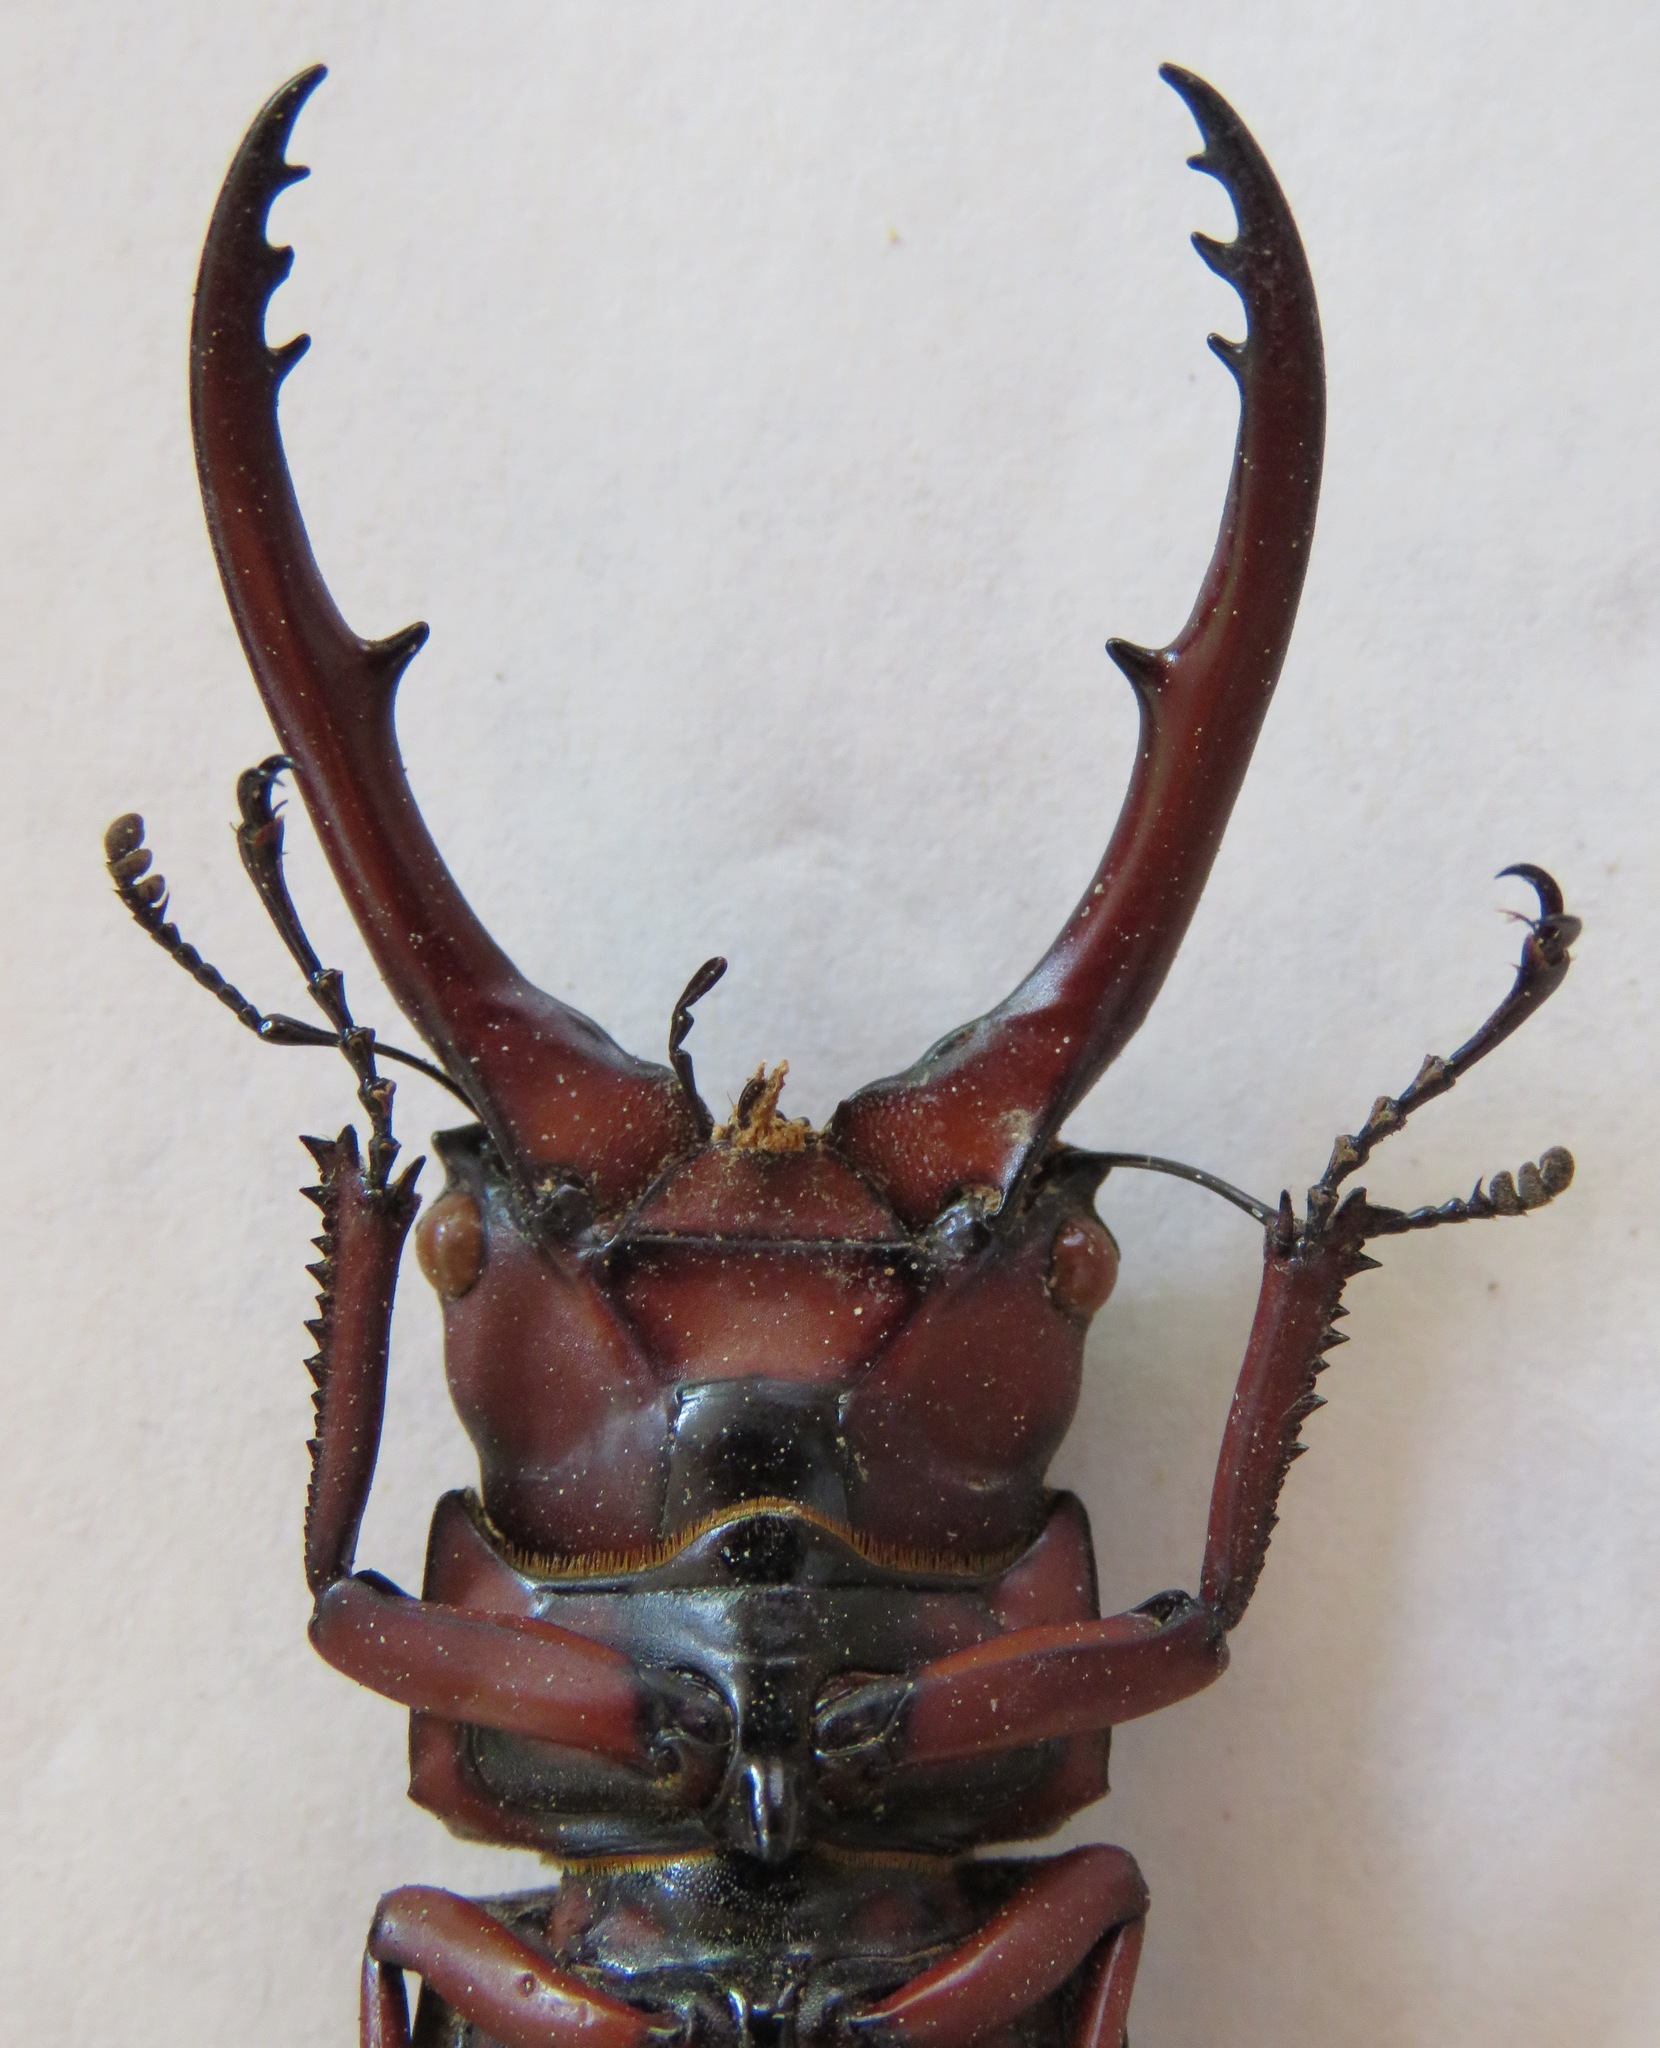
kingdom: Animalia
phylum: Arthropoda
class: Insecta
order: Coleoptera
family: Lucanidae
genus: Prosopocoilus
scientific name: Prosopocoilus astacoides
